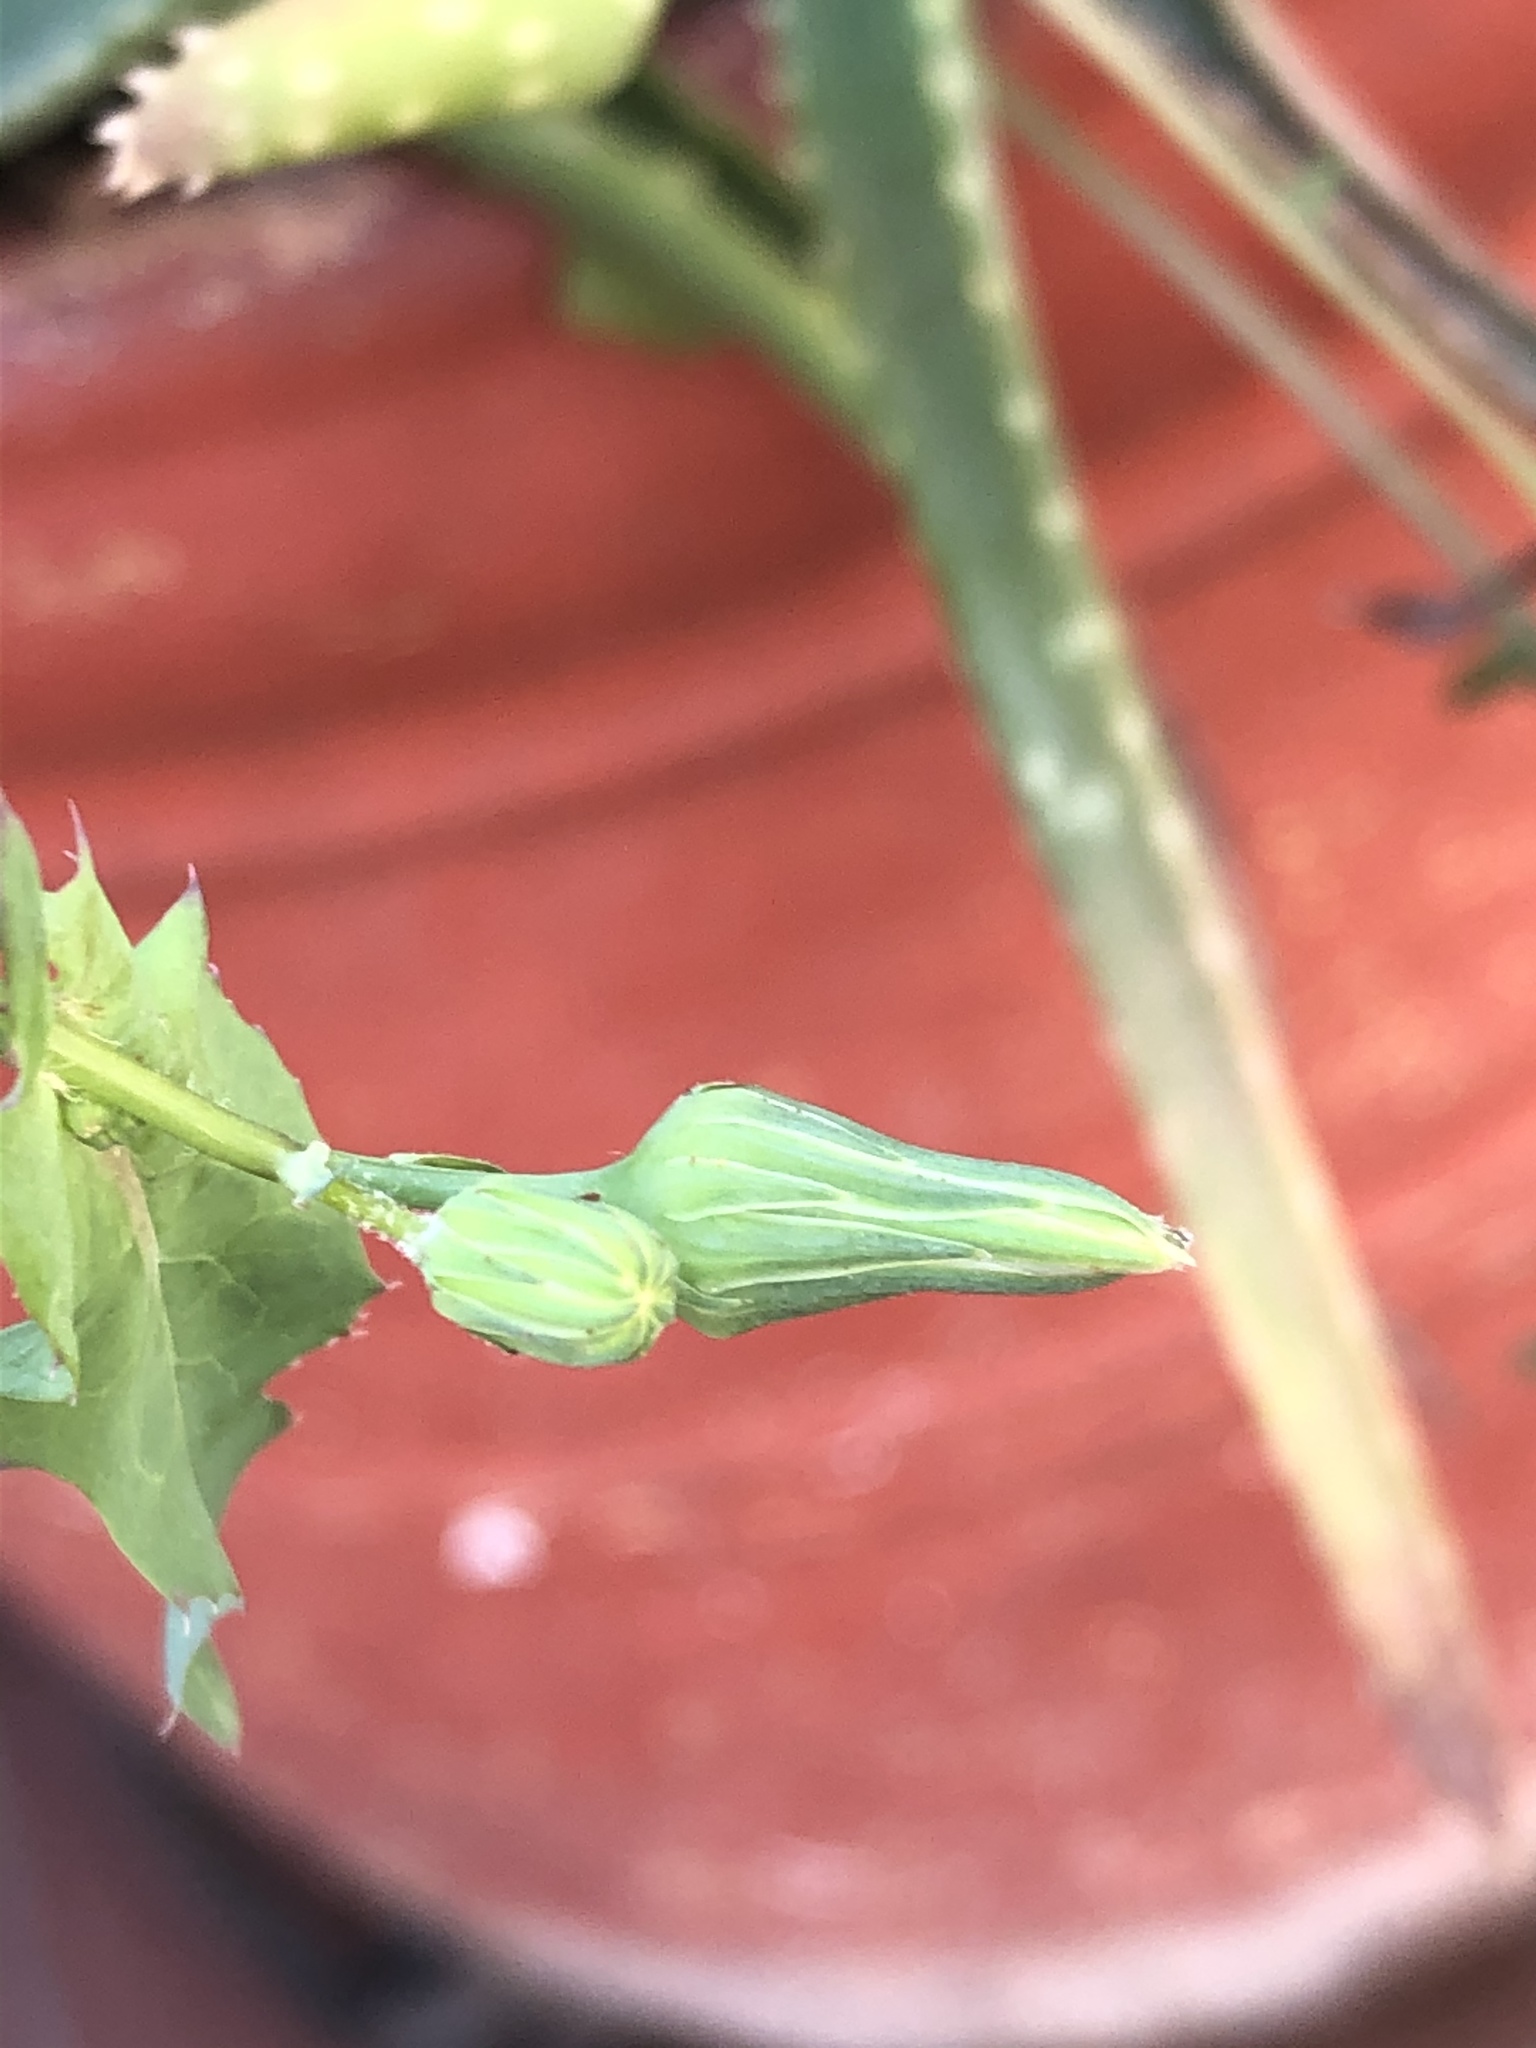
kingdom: Plantae
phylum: Tracheophyta
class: Magnoliopsida
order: Asterales
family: Asteraceae
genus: Sonchus
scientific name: Sonchus oleraceus
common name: Common sowthistle
